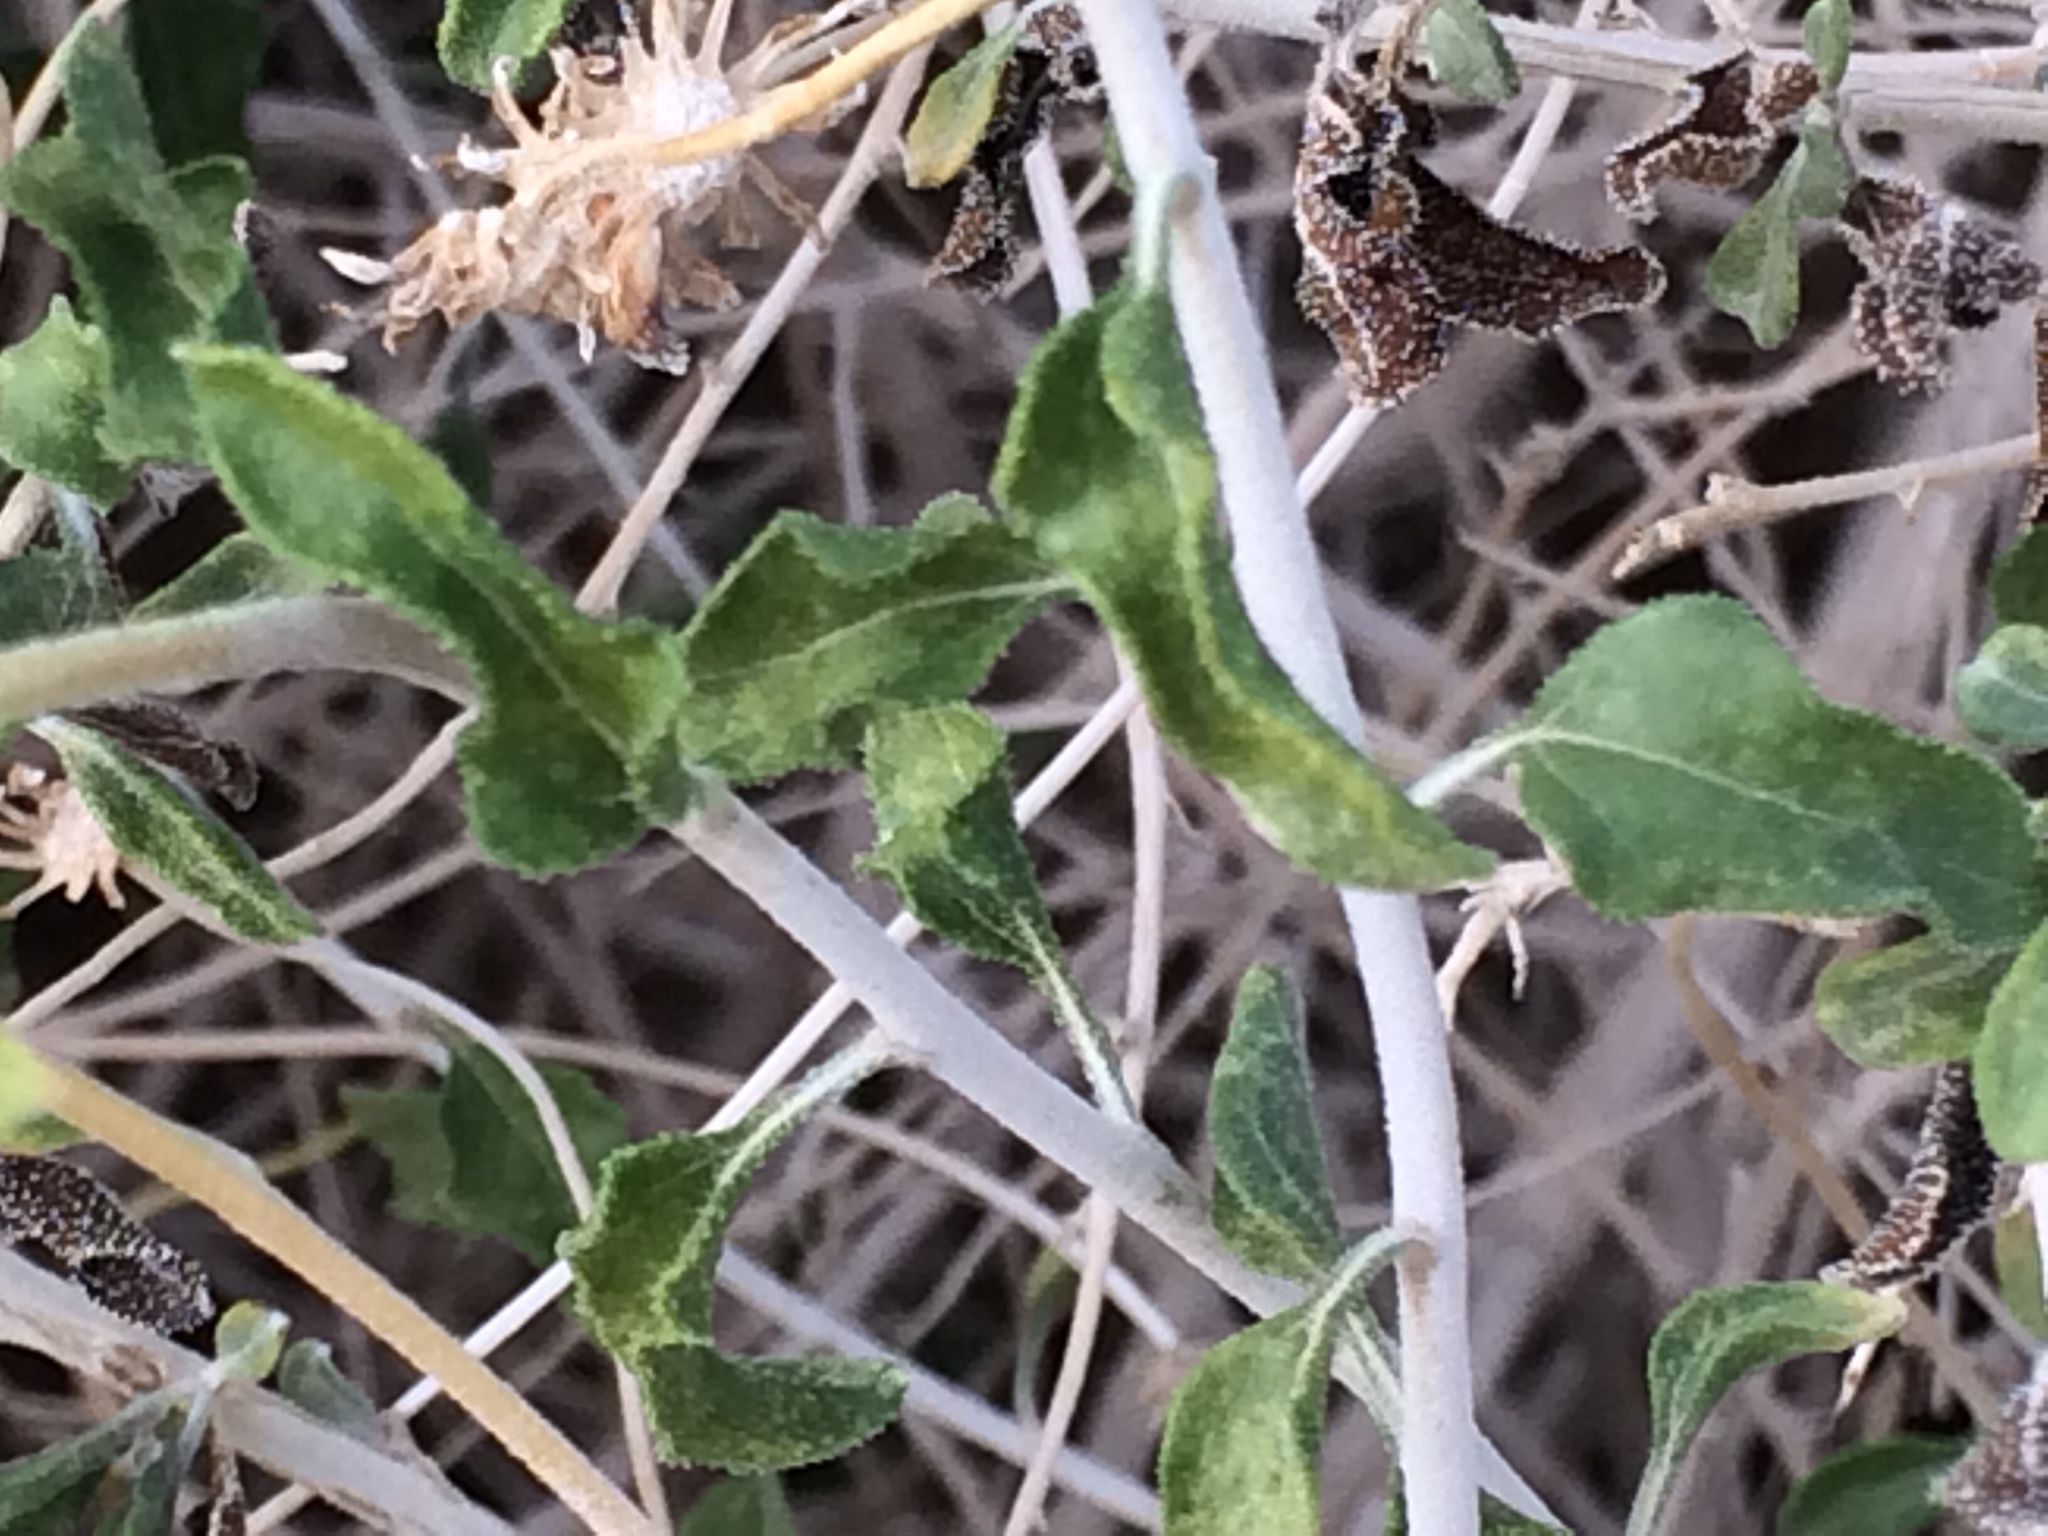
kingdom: Plantae
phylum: Tracheophyta
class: Magnoliopsida
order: Asterales
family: Asteraceae
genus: Encelia
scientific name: Encelia frutescens
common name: Bush encelia
